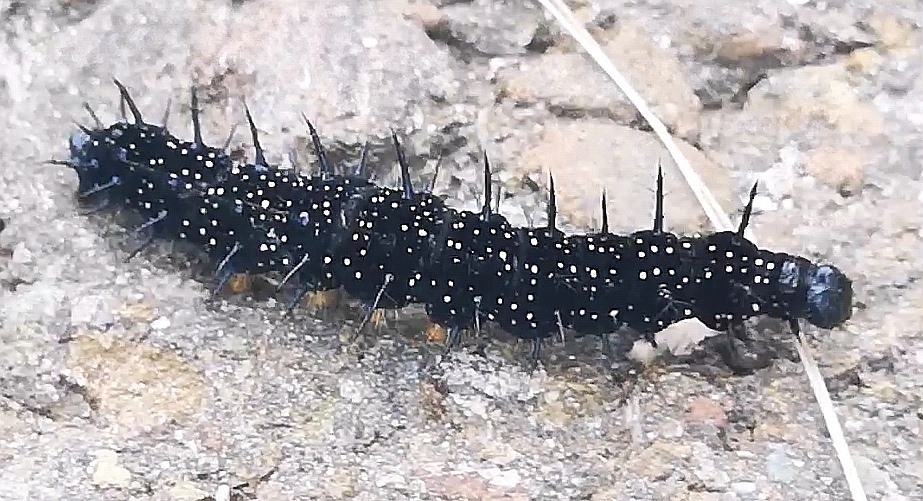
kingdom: Animalia
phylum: Arthropoda
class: Insecta
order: Lepidoptera
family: Nymphalidae
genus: Aglais
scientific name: Aglais io
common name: Peacock
